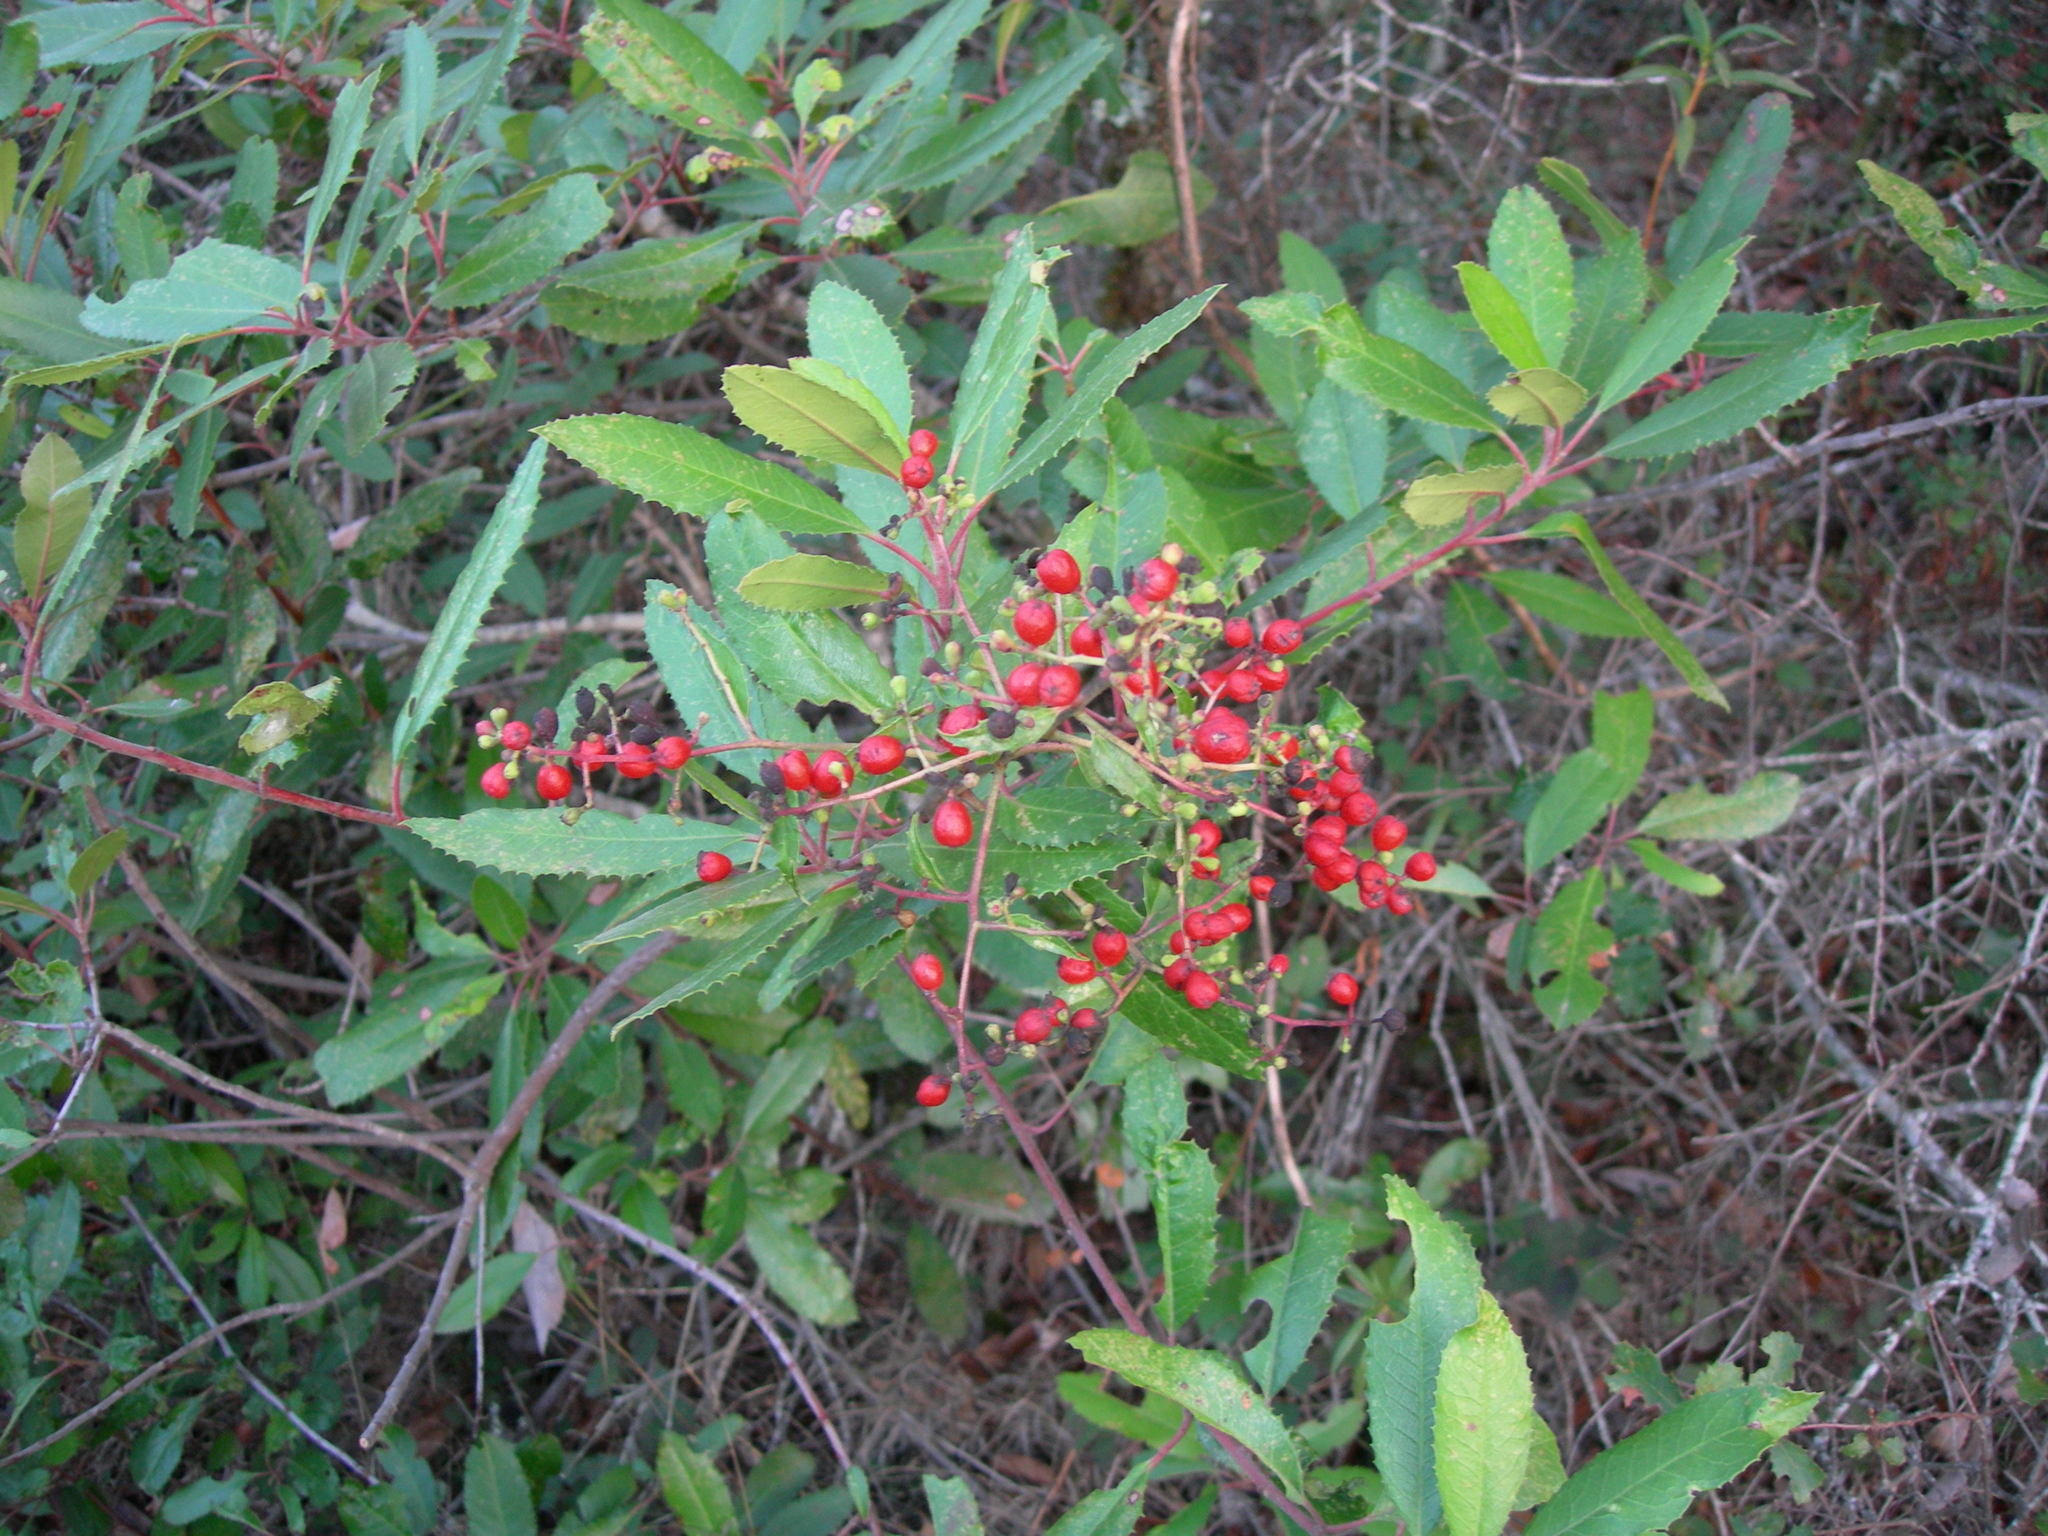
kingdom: Plantae
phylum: Tracheophyta
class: Magnoliopsida
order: Rosales
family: Rosaceae
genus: Heteromeles
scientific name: Heteromeles arbutifolia
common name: California-holly
